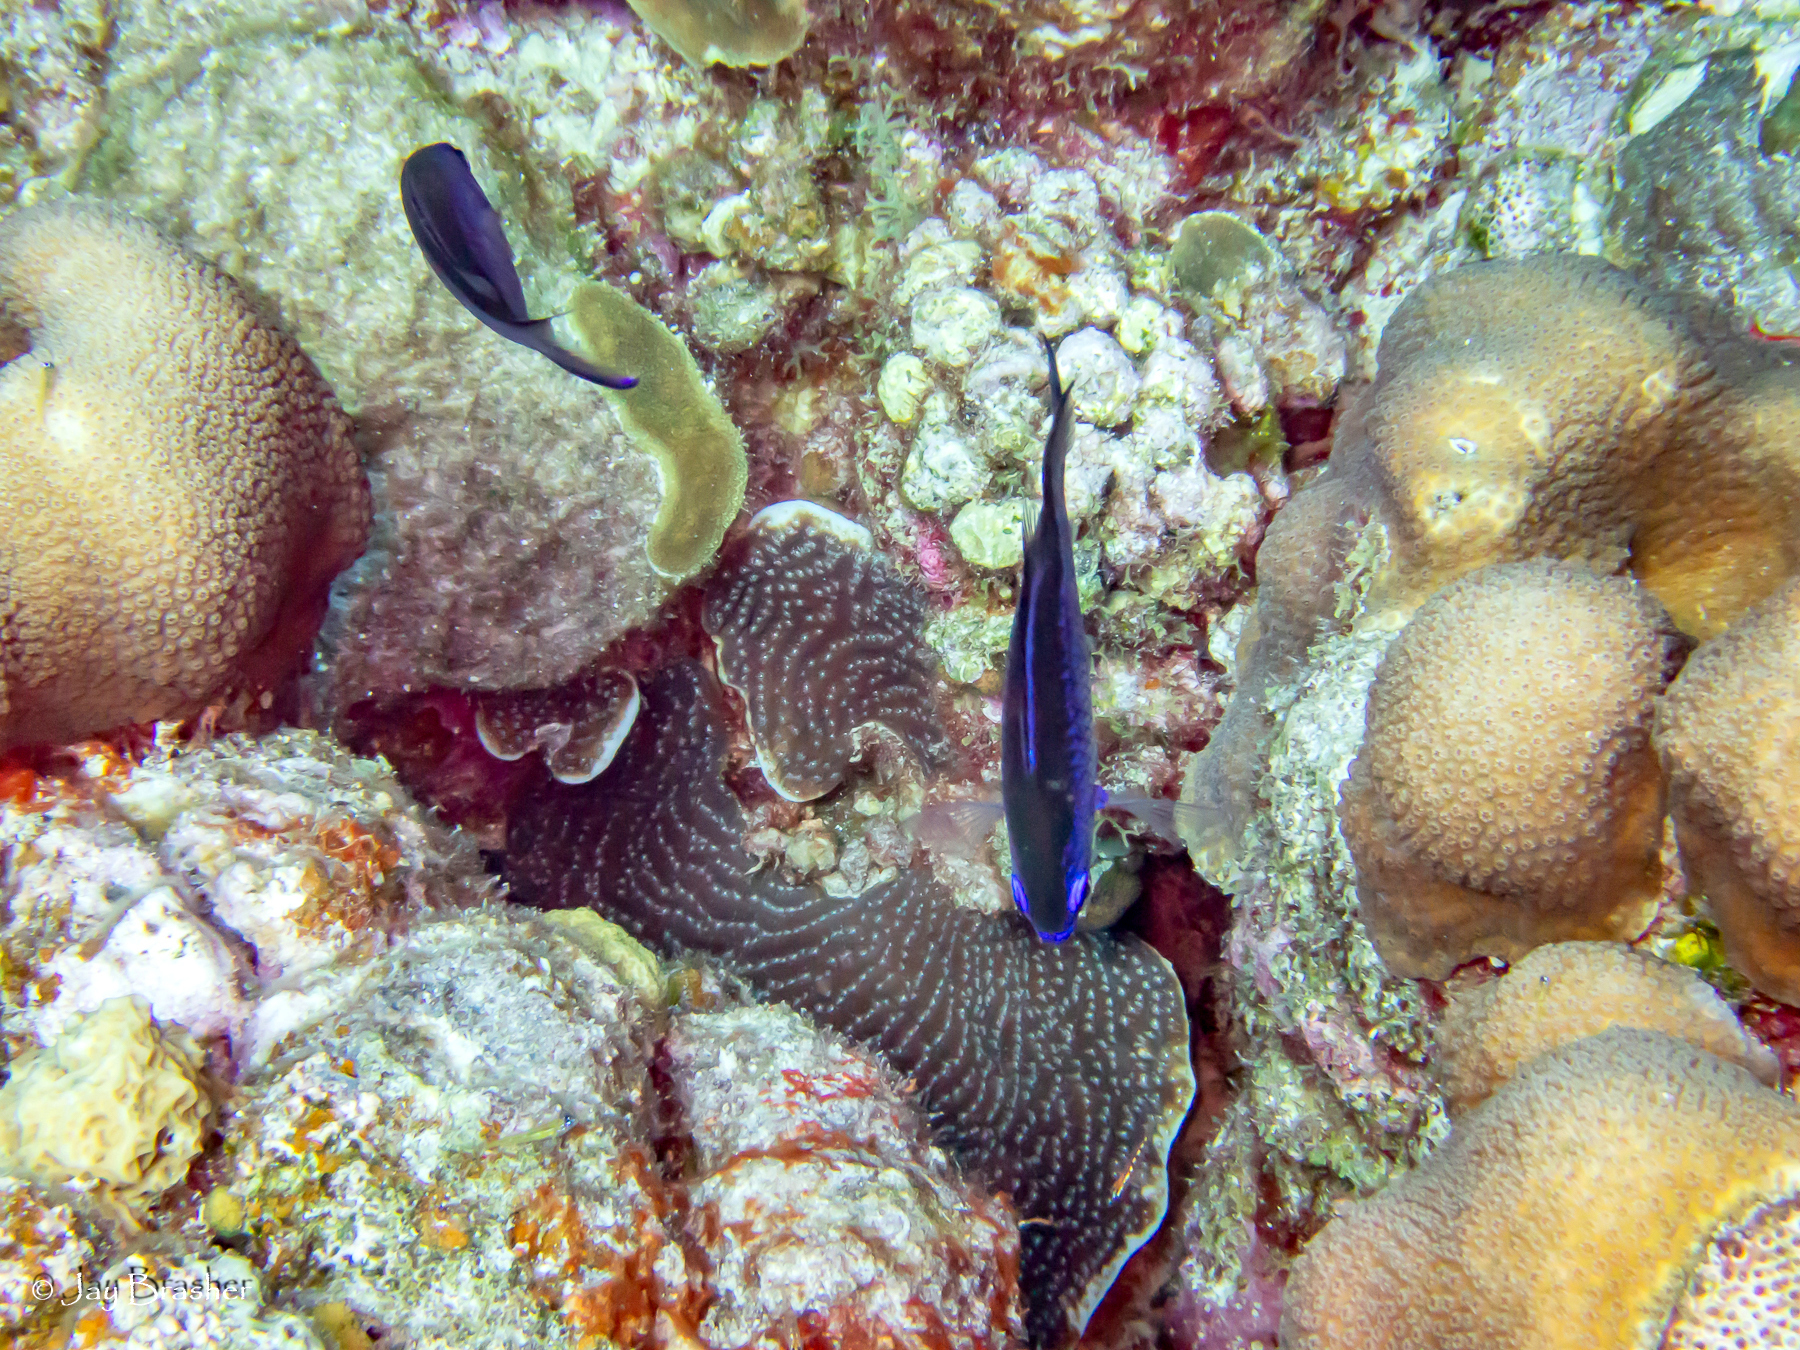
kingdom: Animalia
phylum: Chordata
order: Perciformes
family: Pomacentridae
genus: Chromis
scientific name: Chromis cyanea
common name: Blue chromis
